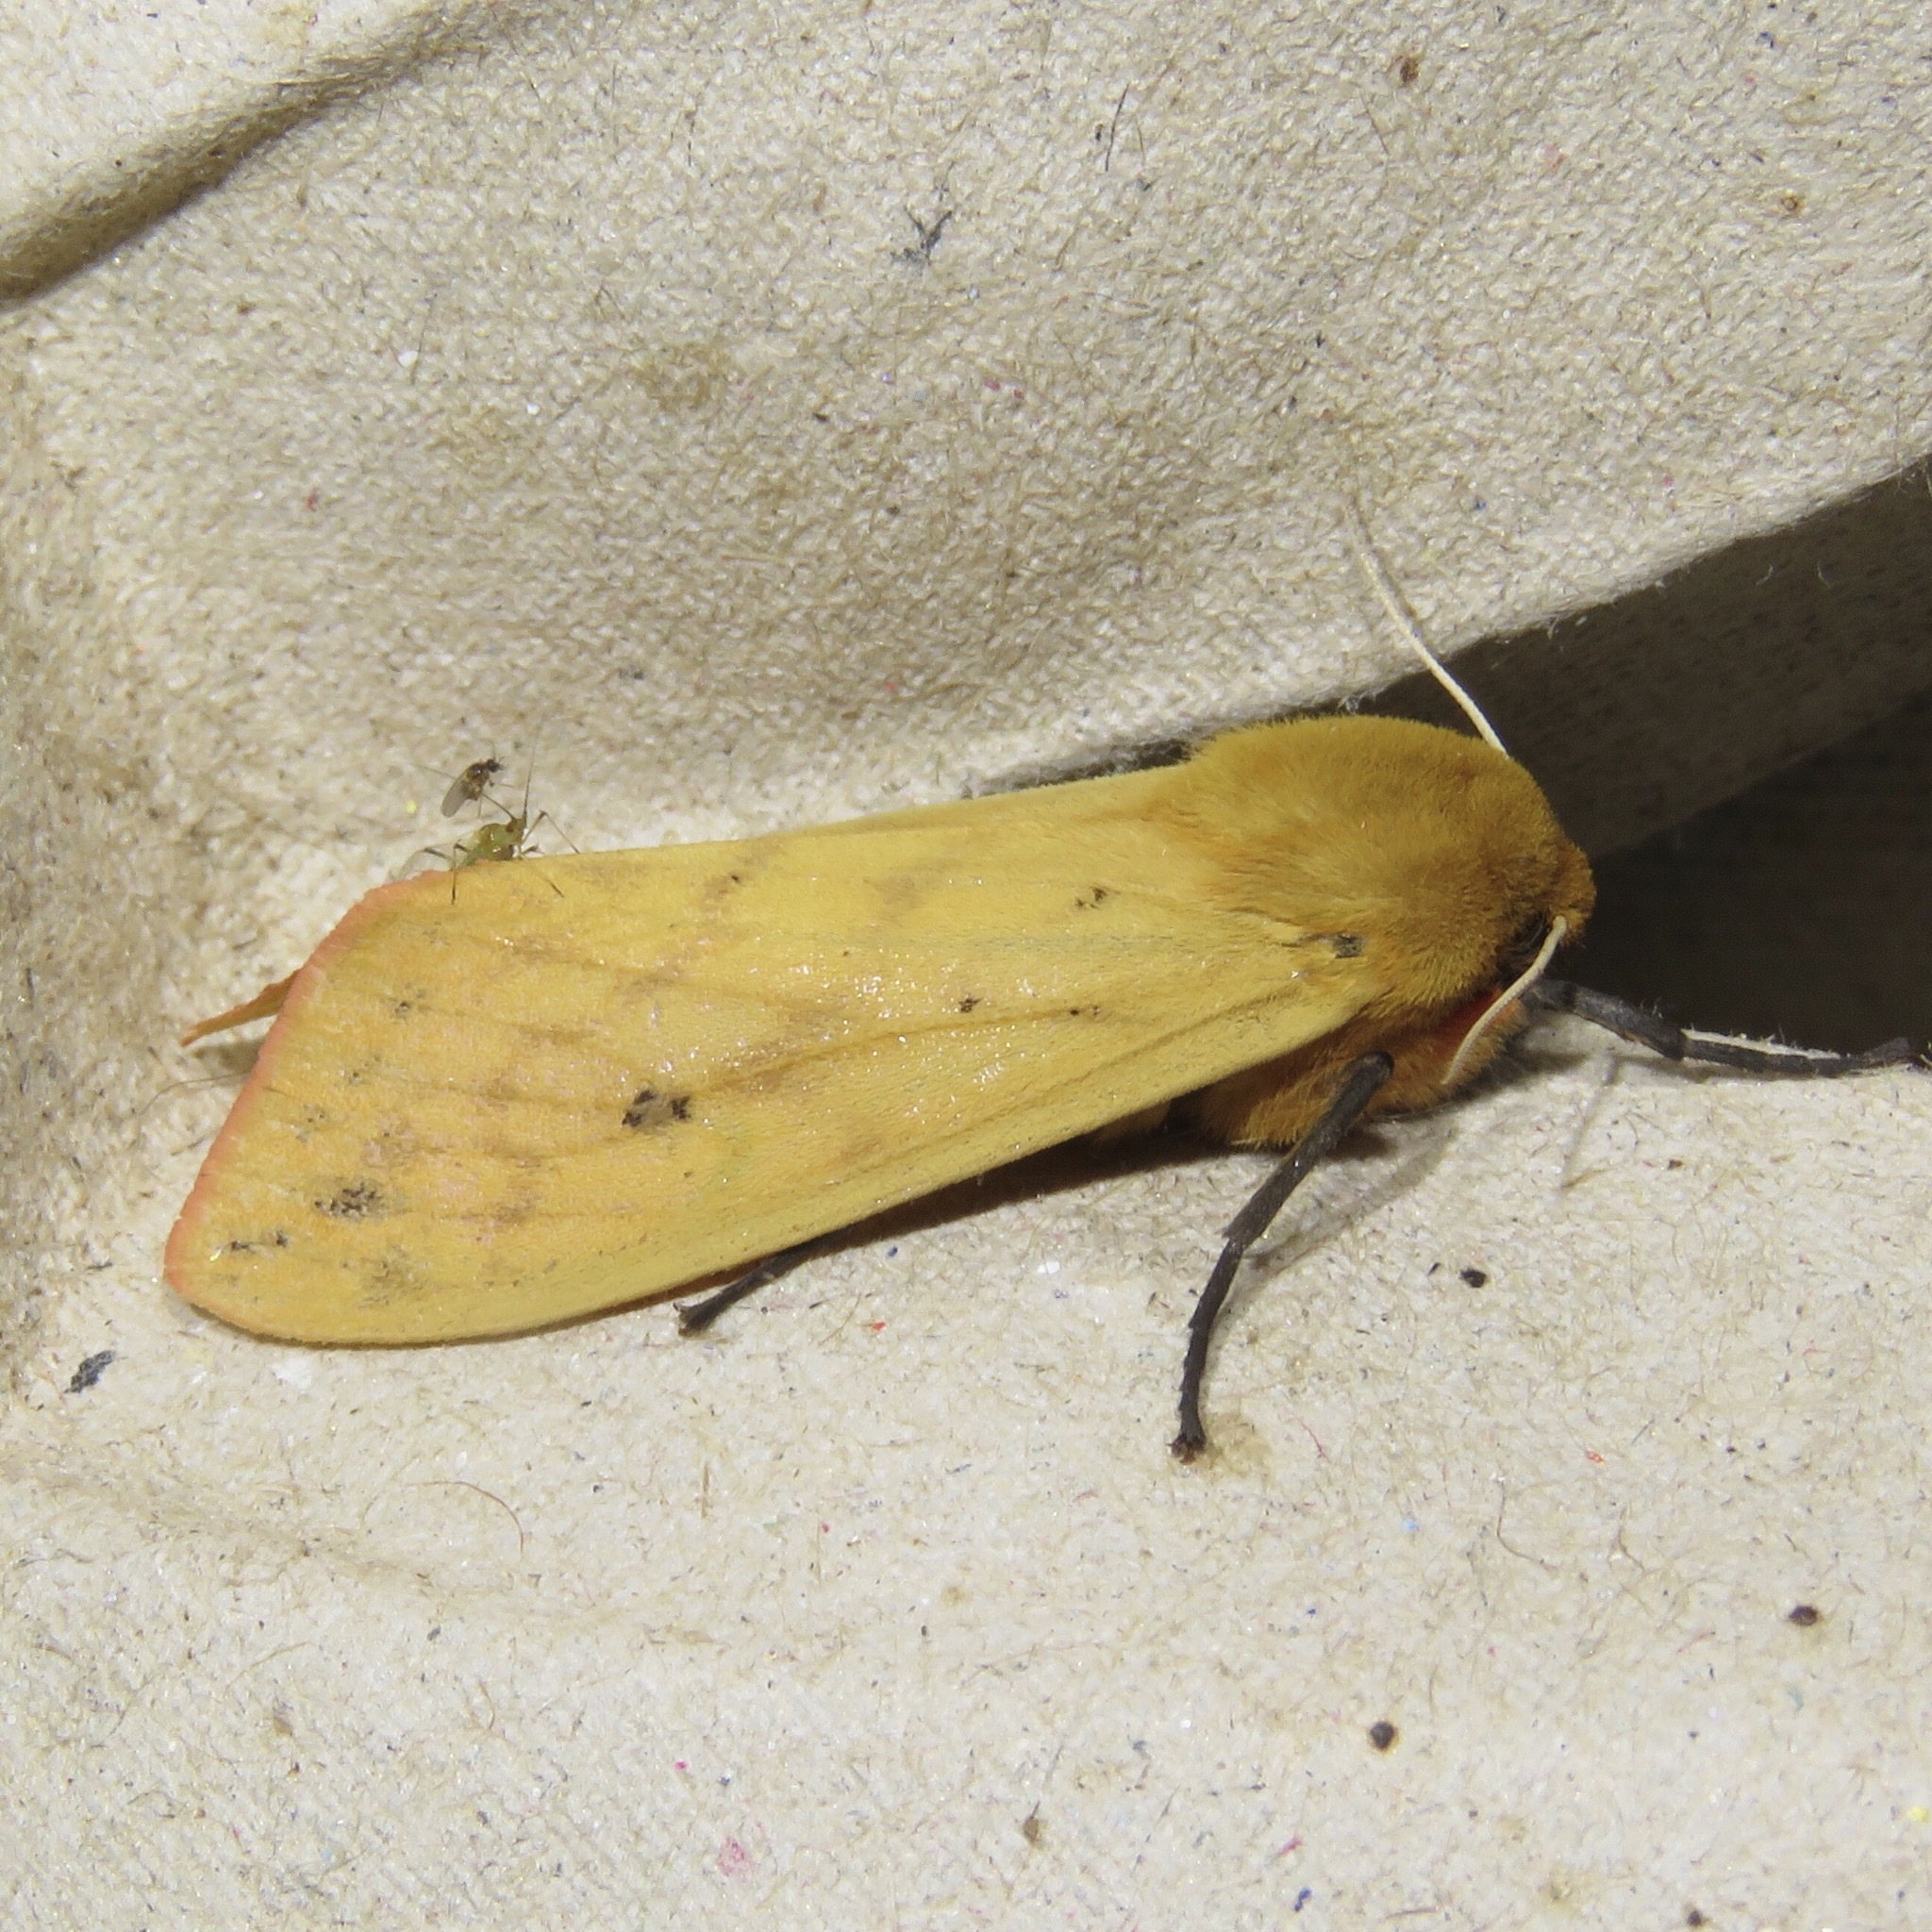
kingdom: Animalia
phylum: Arthropoda
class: Insecta
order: Lepidoptera
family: Erebidae
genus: Pyrrharctia
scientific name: Pyrrharctia isabella
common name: Isabella tiger moth
